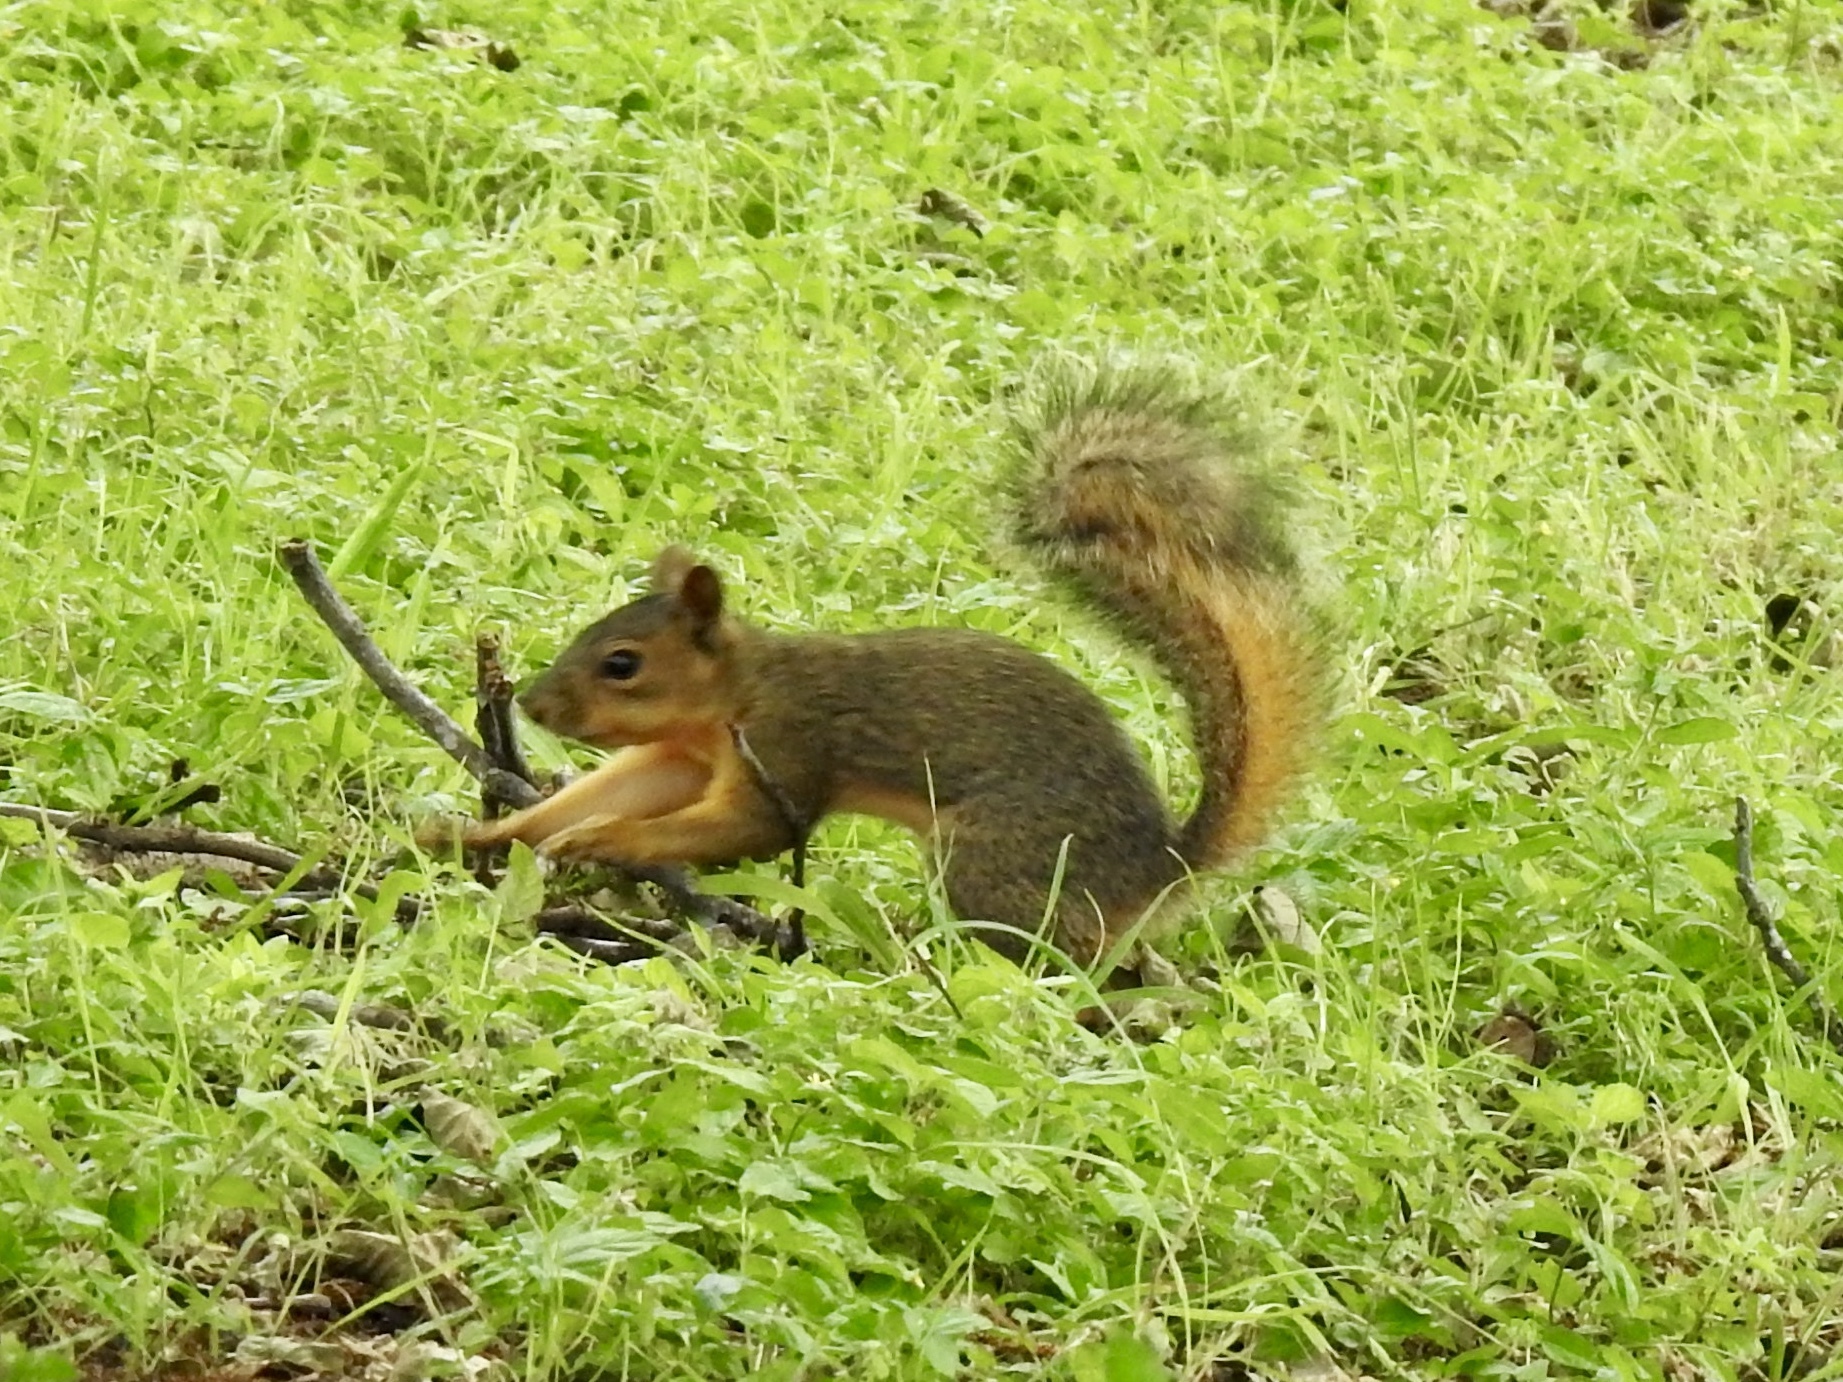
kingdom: Animalia
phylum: Chordata
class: Mammalia
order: Rodentia
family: Sciuridae
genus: Sciurus
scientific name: Sciurus niger
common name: Fox squirrel
